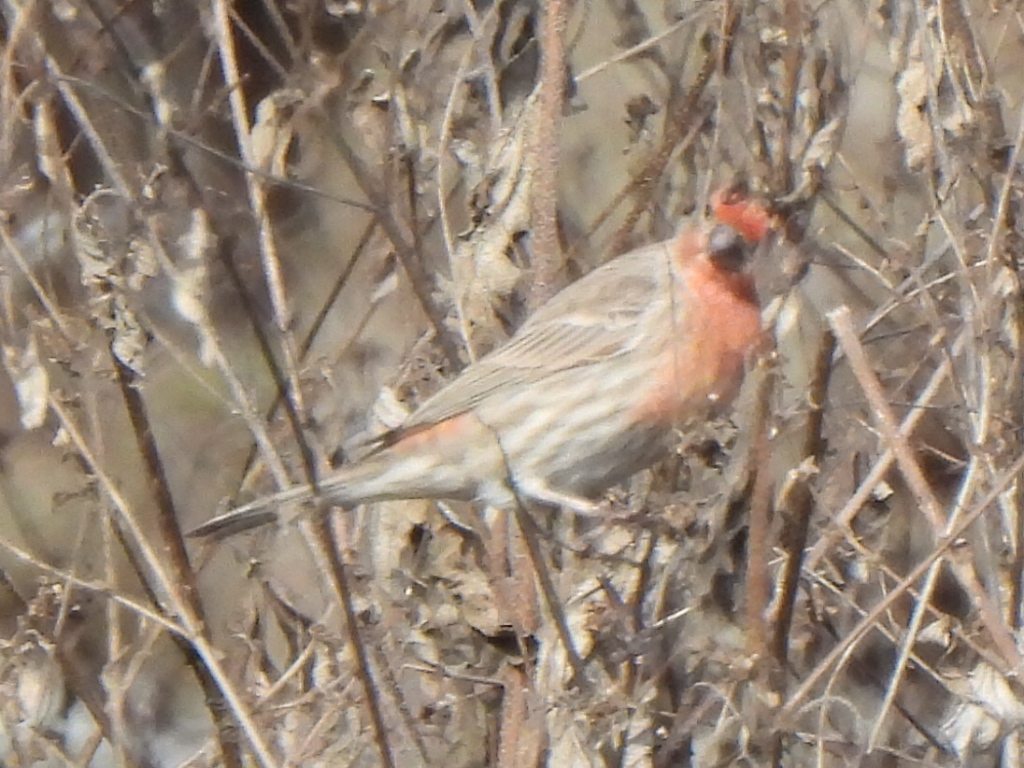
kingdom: Animalia
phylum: Chordata
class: Aves
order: Passeriformes
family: Fringillidae
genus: Haemorhous
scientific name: Haemorhous mexicanus
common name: House finch
